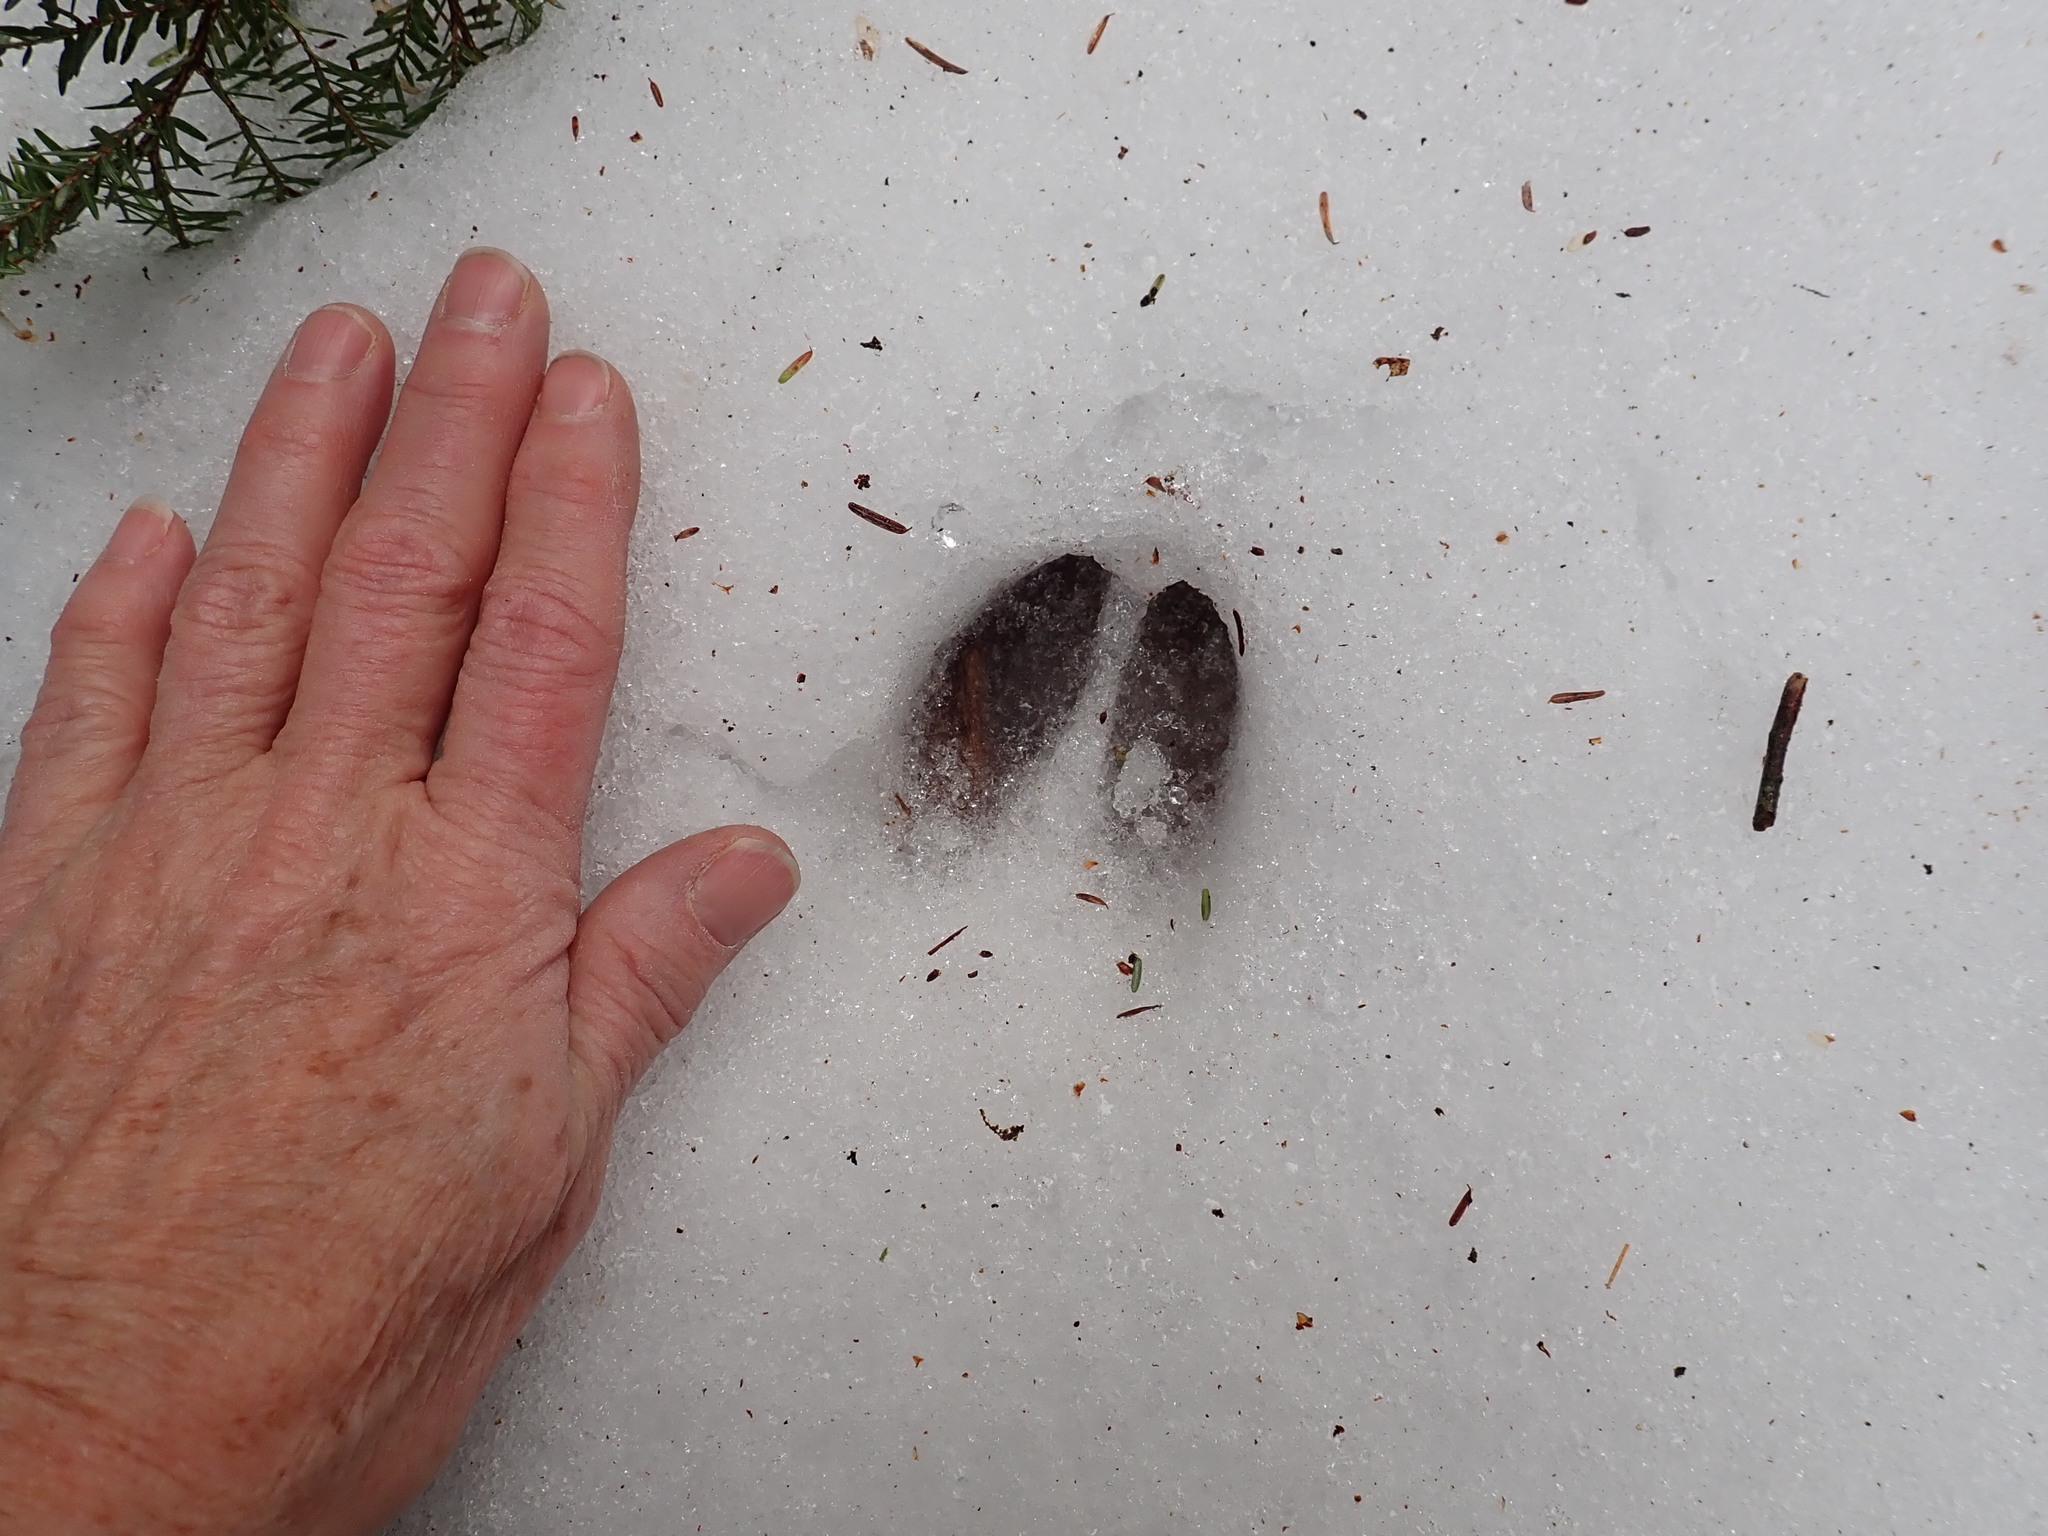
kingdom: Animalia
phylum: Chordata
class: Mammalia
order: Artiodactyla
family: Cervidae
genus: Odocoileus
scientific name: Odocoileus virginianus
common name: White-tailed deer
